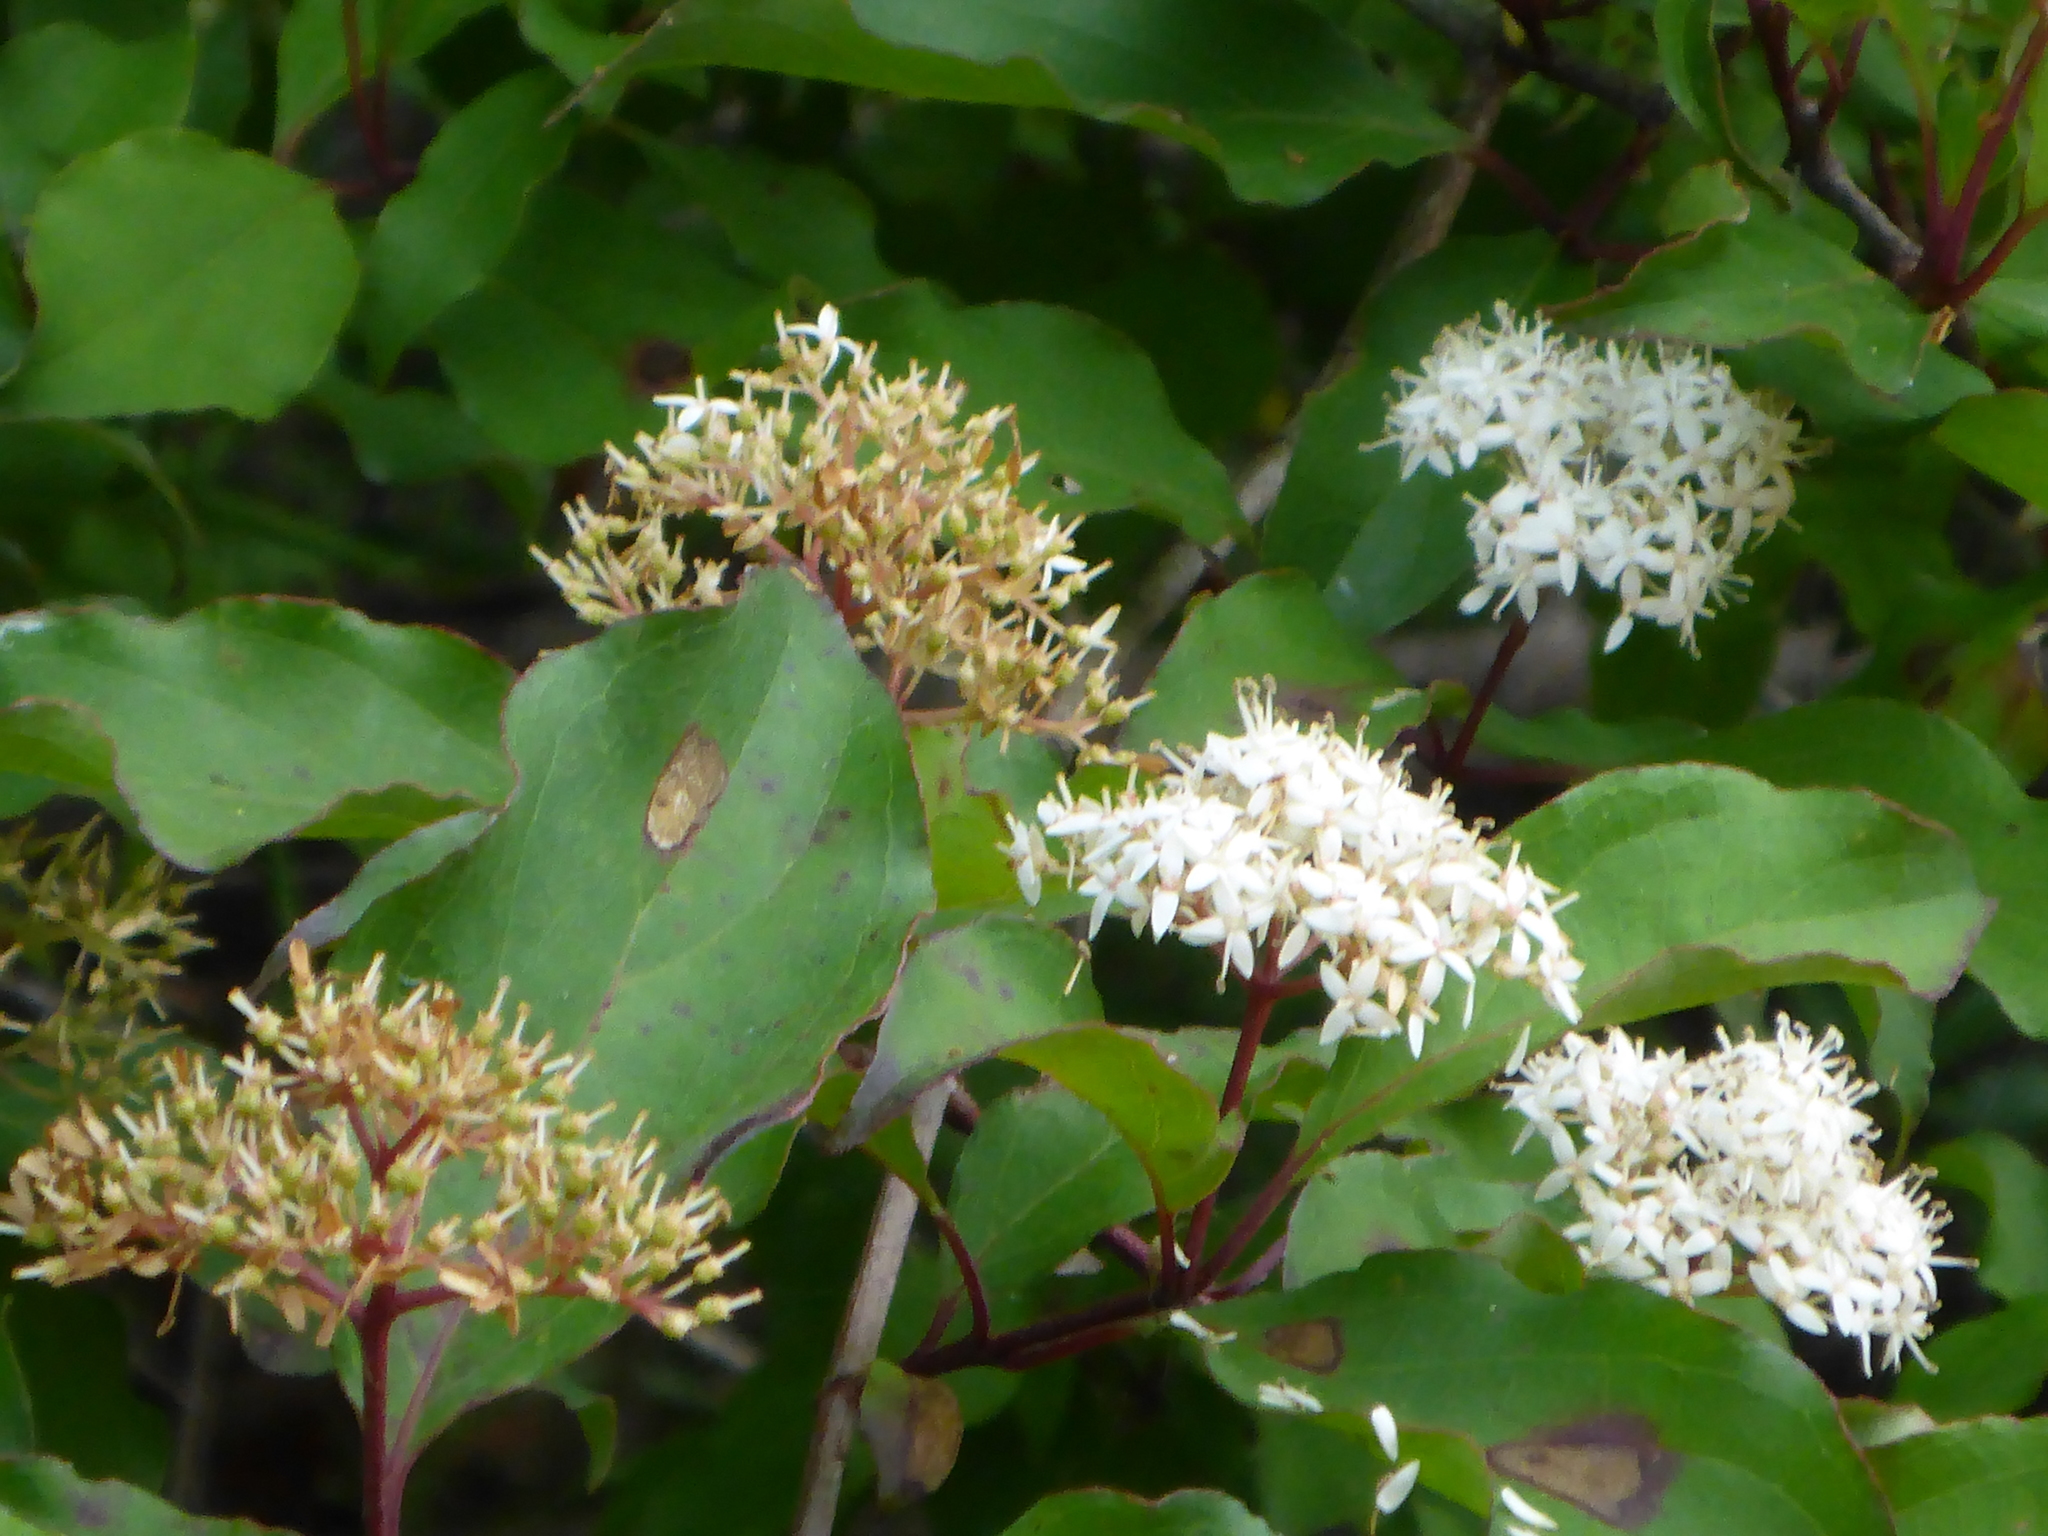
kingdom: Plantae
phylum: Tracheophyta
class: Magnoliopsida
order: Cornales
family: Cornaceae
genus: Cornus
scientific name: Cornus foemina
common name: Swamp dogwood
